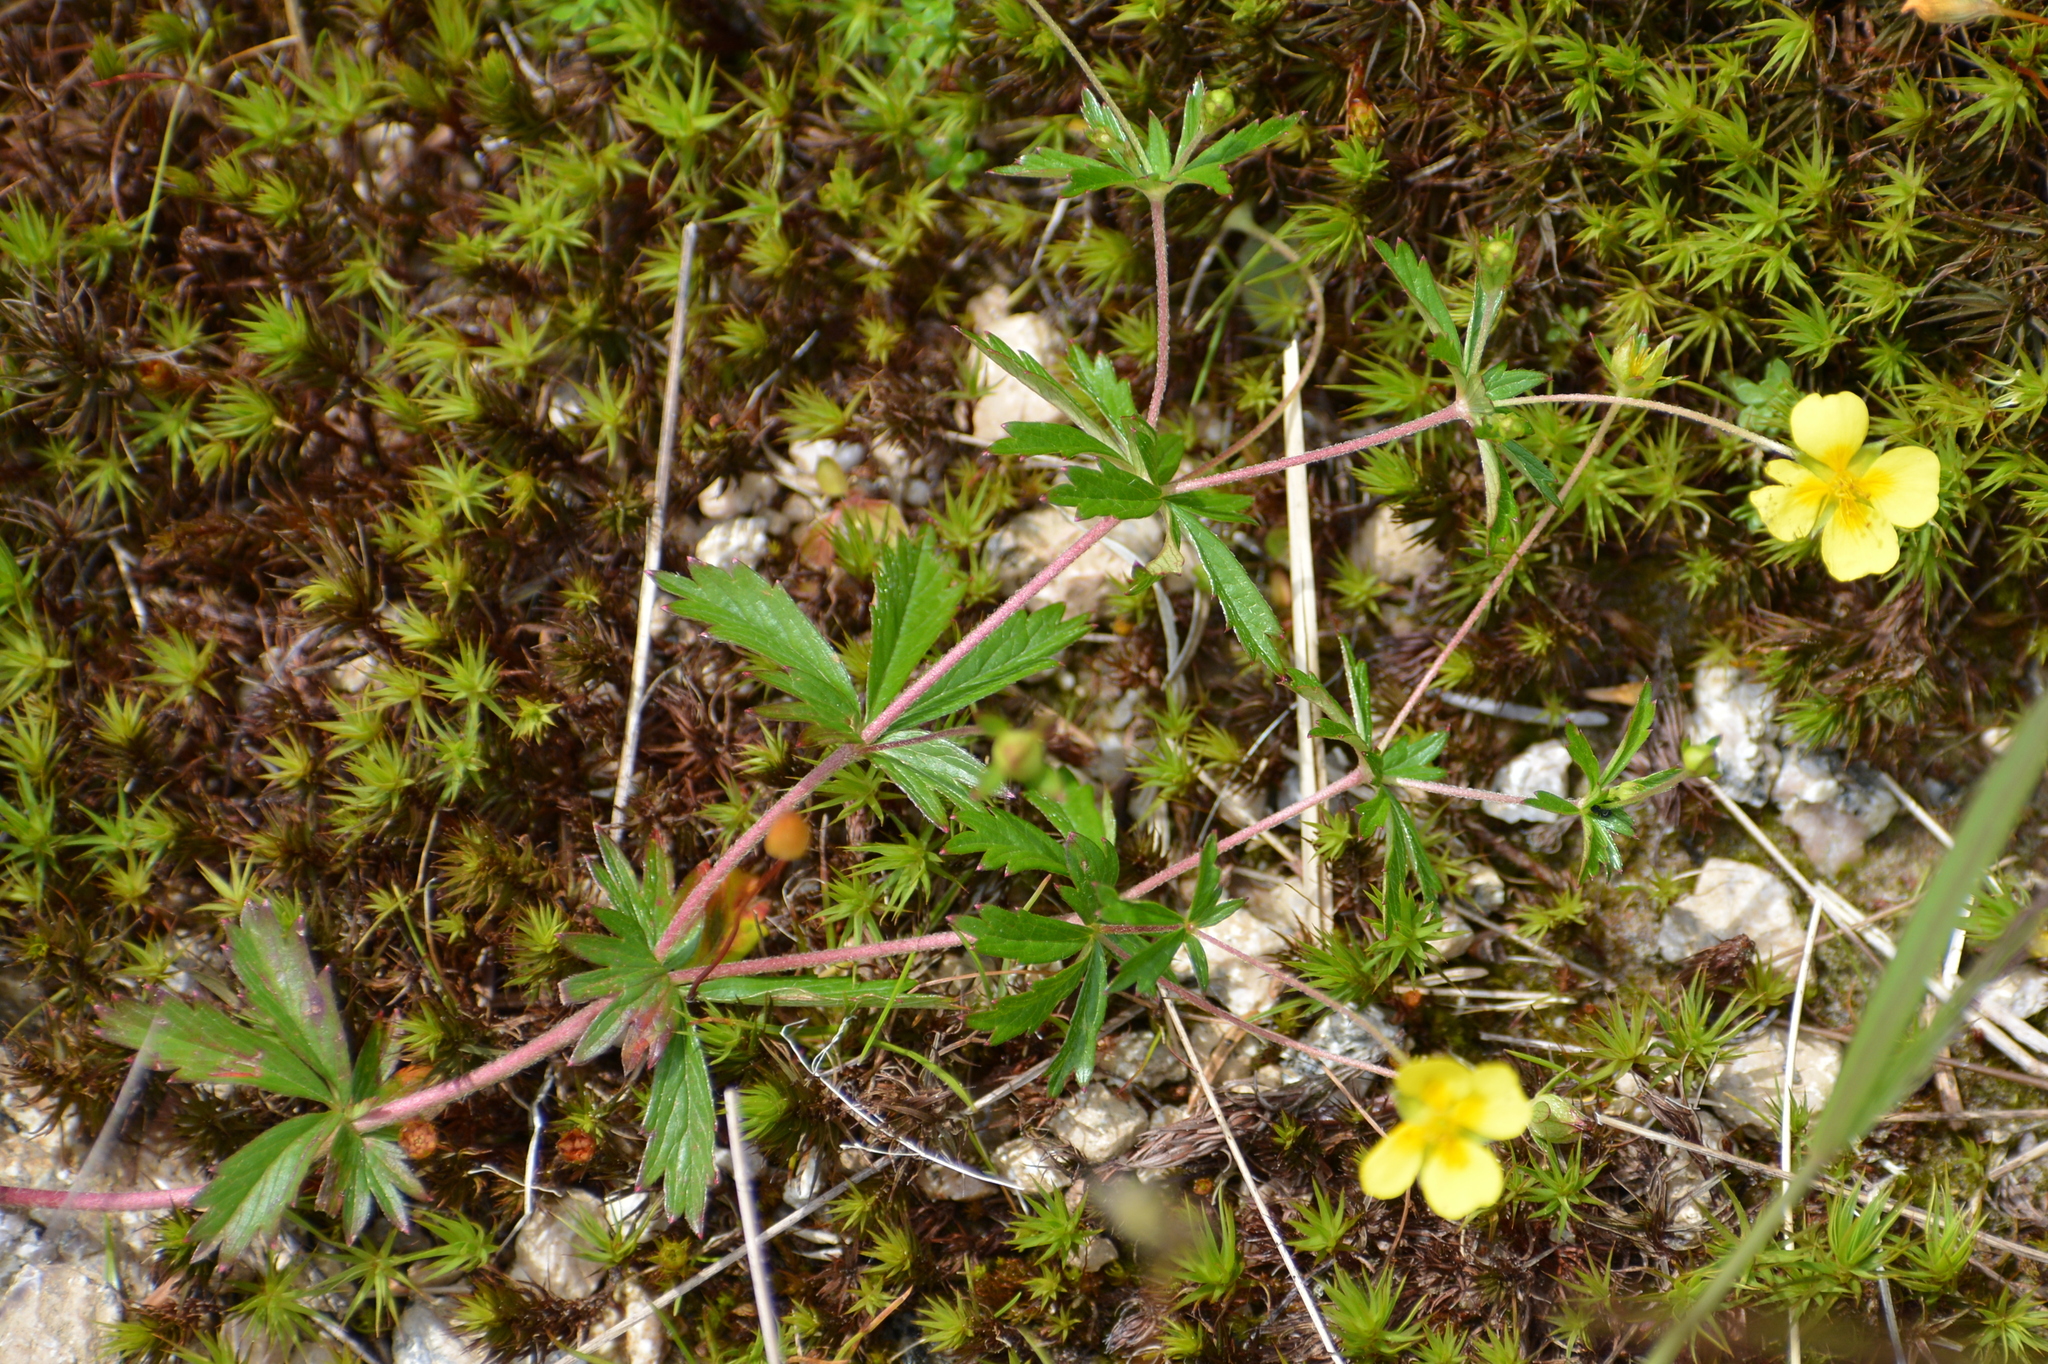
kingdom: Plantae
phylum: Tracheophyta
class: Magnoliopsida
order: Rosales
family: Rosaceae
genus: Potentilla
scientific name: Potentilla erecta
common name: Tormentil
